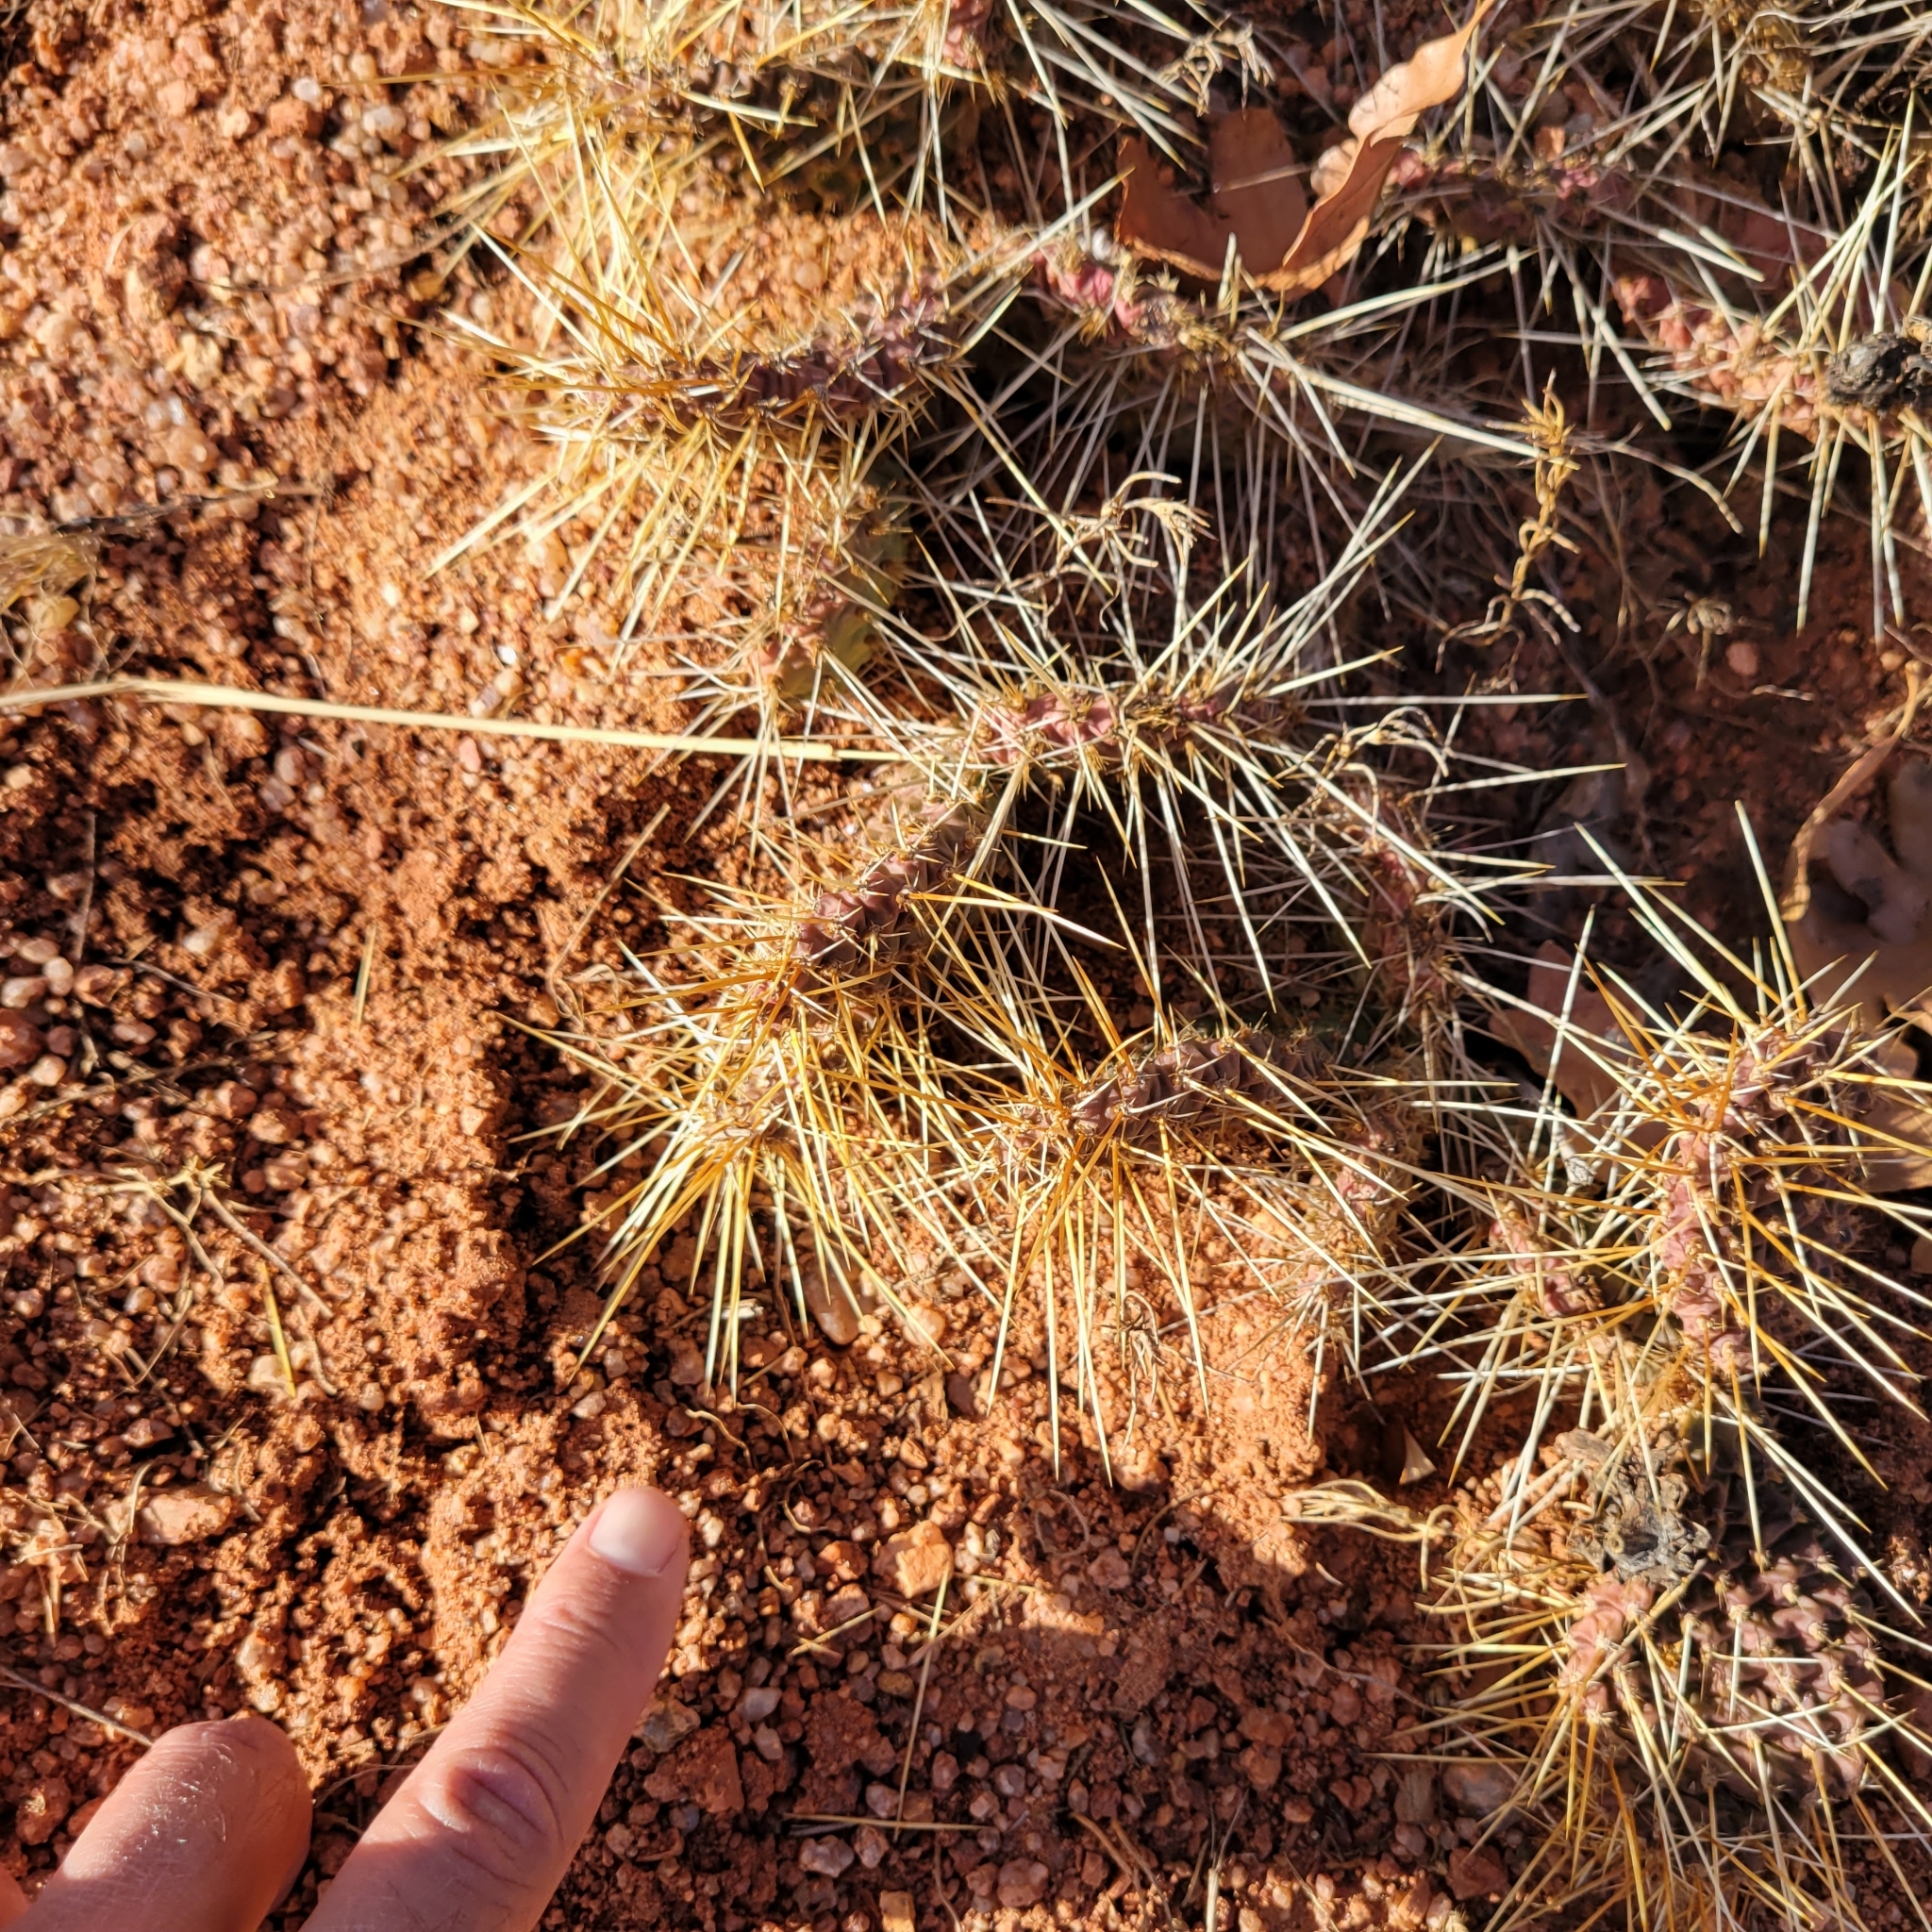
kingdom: Plantae
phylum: Tracheophyta
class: Magnoliopsida
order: Caryophyllales
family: Cactaceae
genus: Opuntia
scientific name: Opuntia polyacantha
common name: Plains prickly-pear
